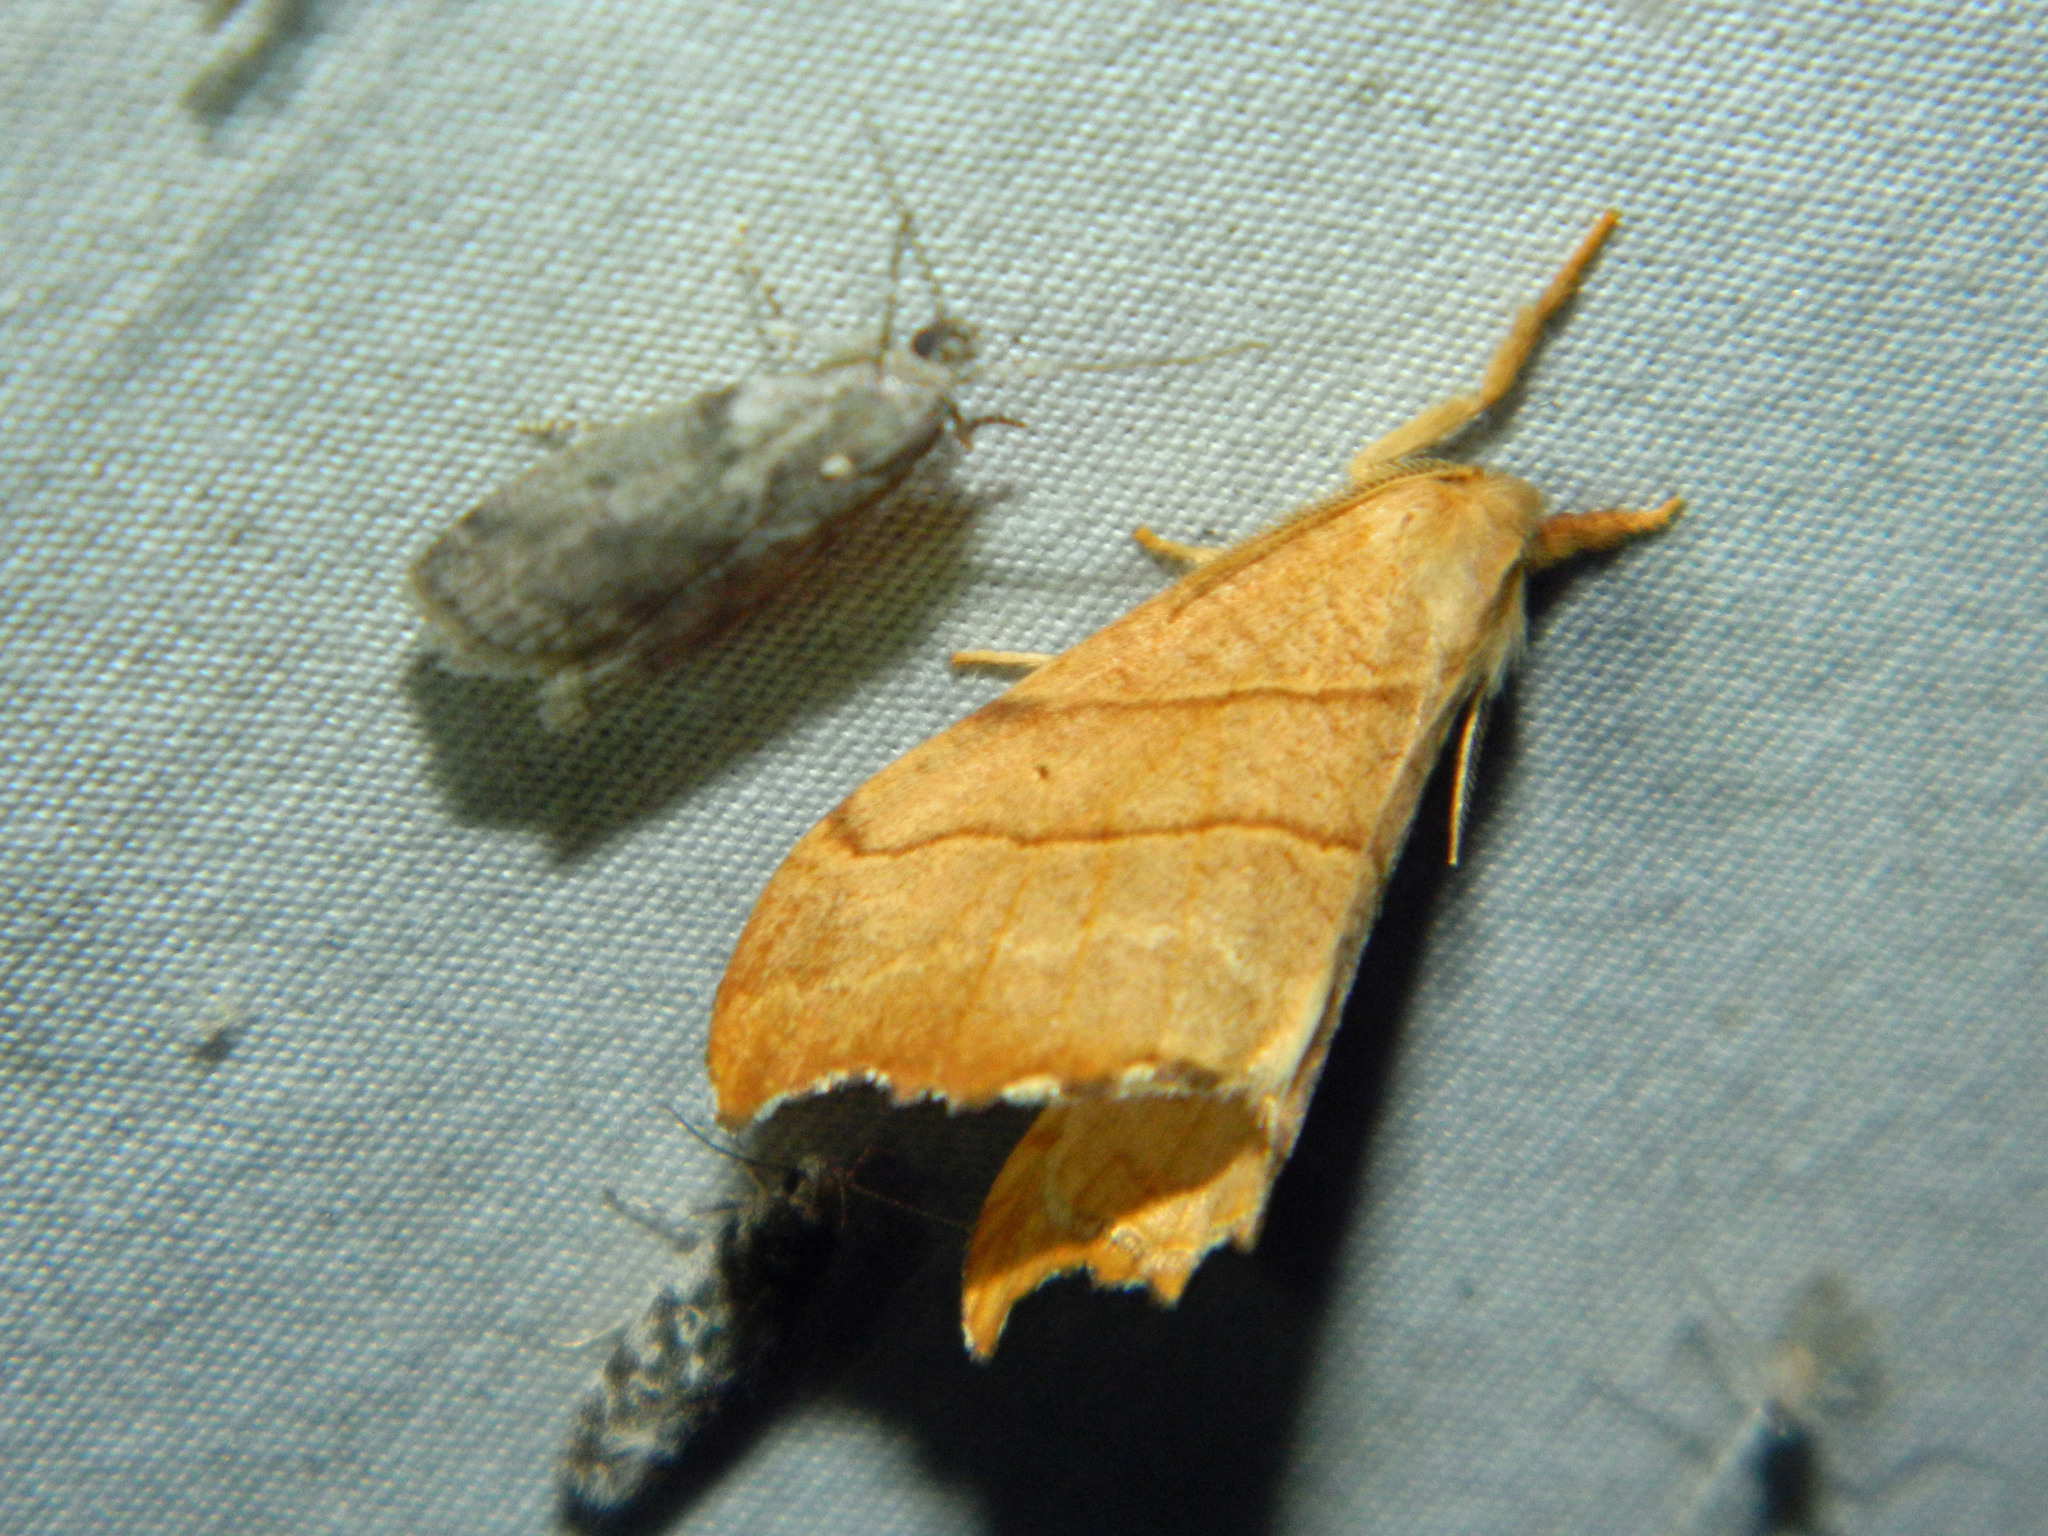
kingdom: Animalia
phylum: Arthropoda
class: Insecta
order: Lepidoptera
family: Drepanidae
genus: Falcaria
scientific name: Falcaria bilineata
